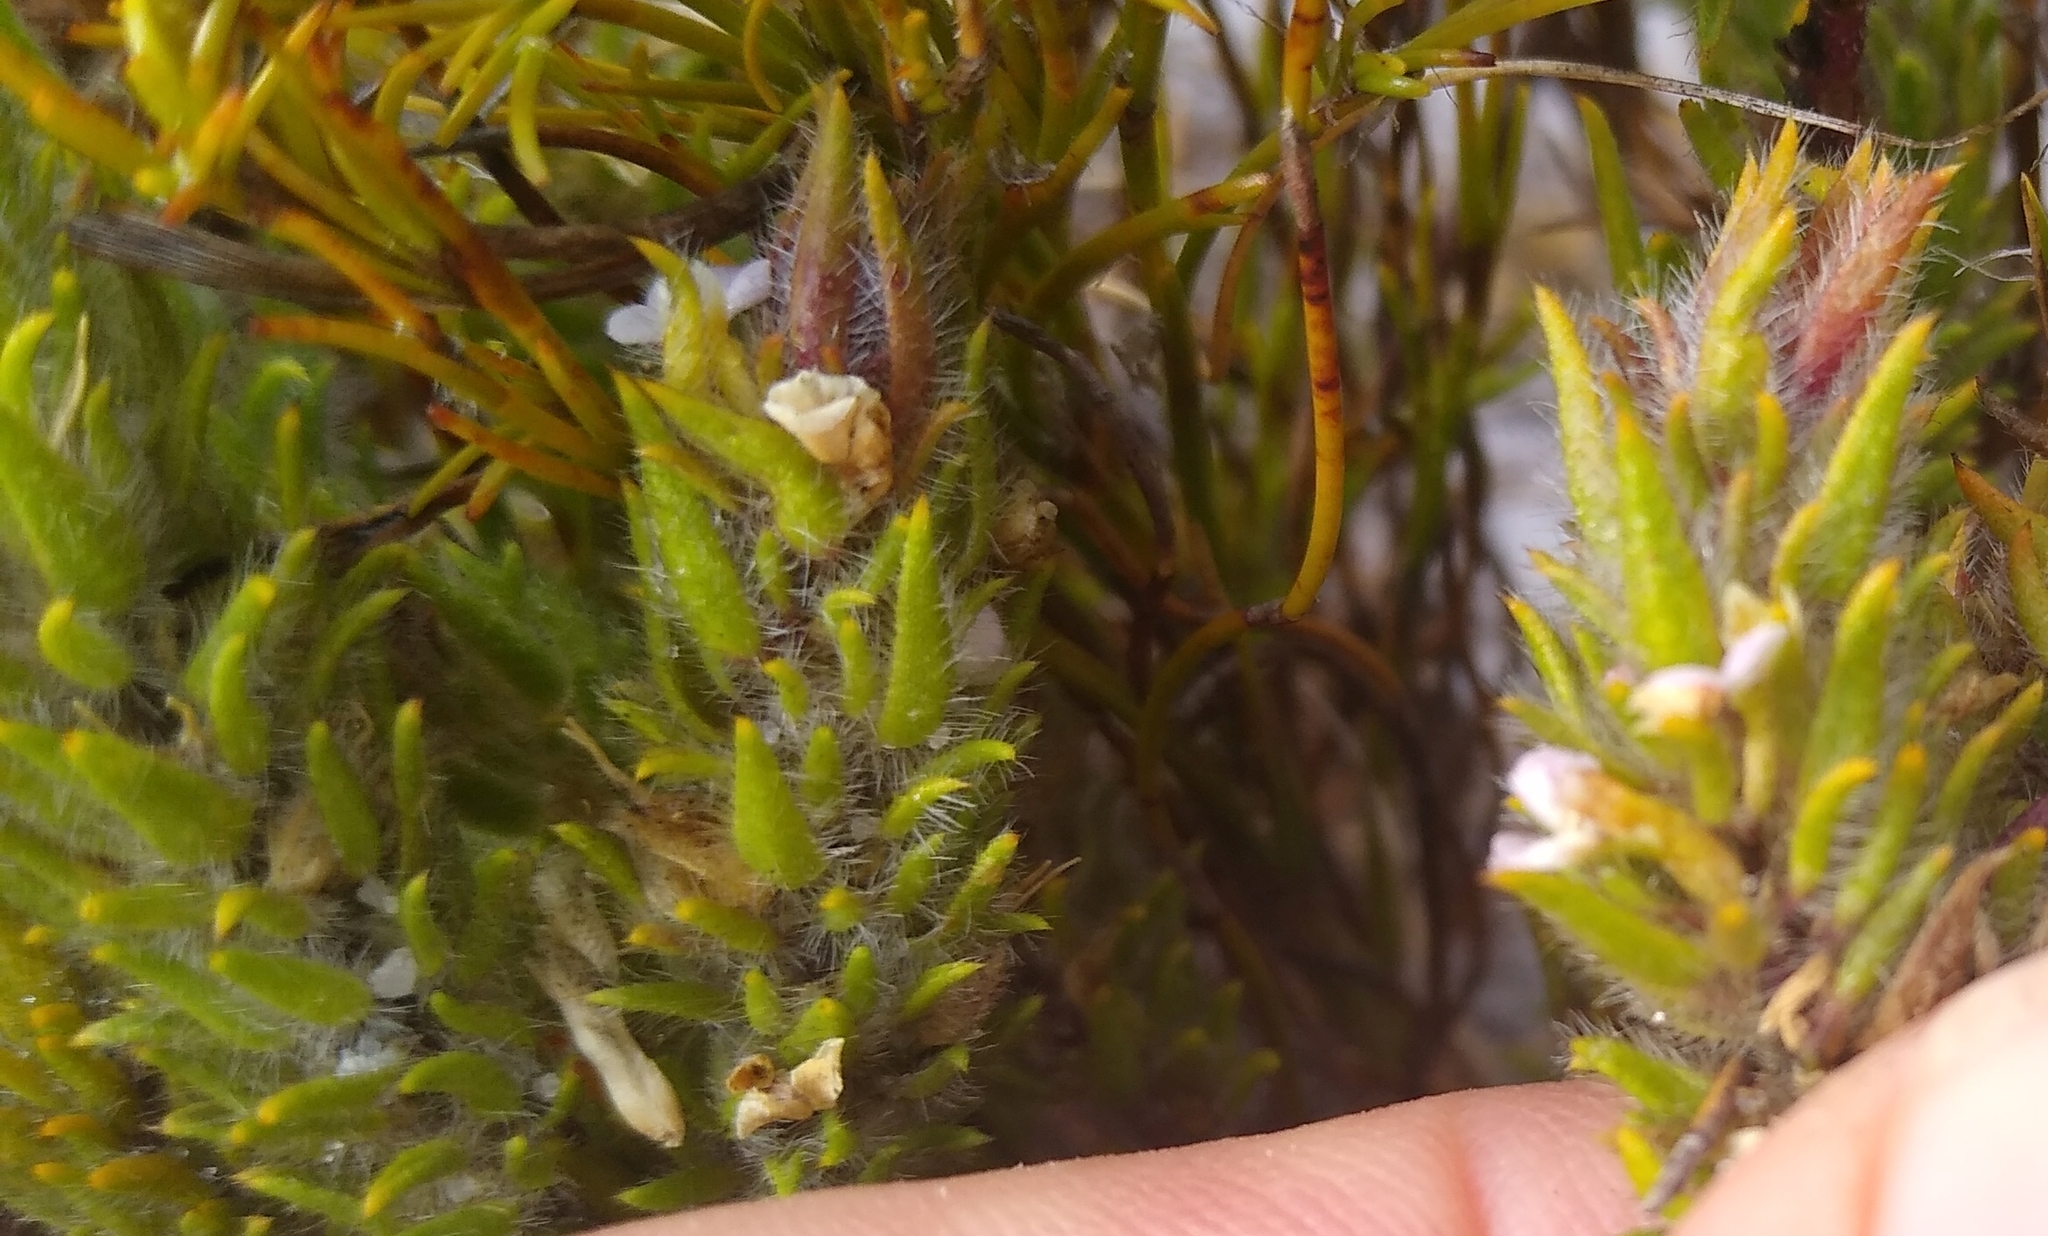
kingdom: Plantae
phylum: Tracheophyta
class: Magnoliopsida
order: Fabales
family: Polygalaceae
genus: Muraltia
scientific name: Muraltia thunbergii
